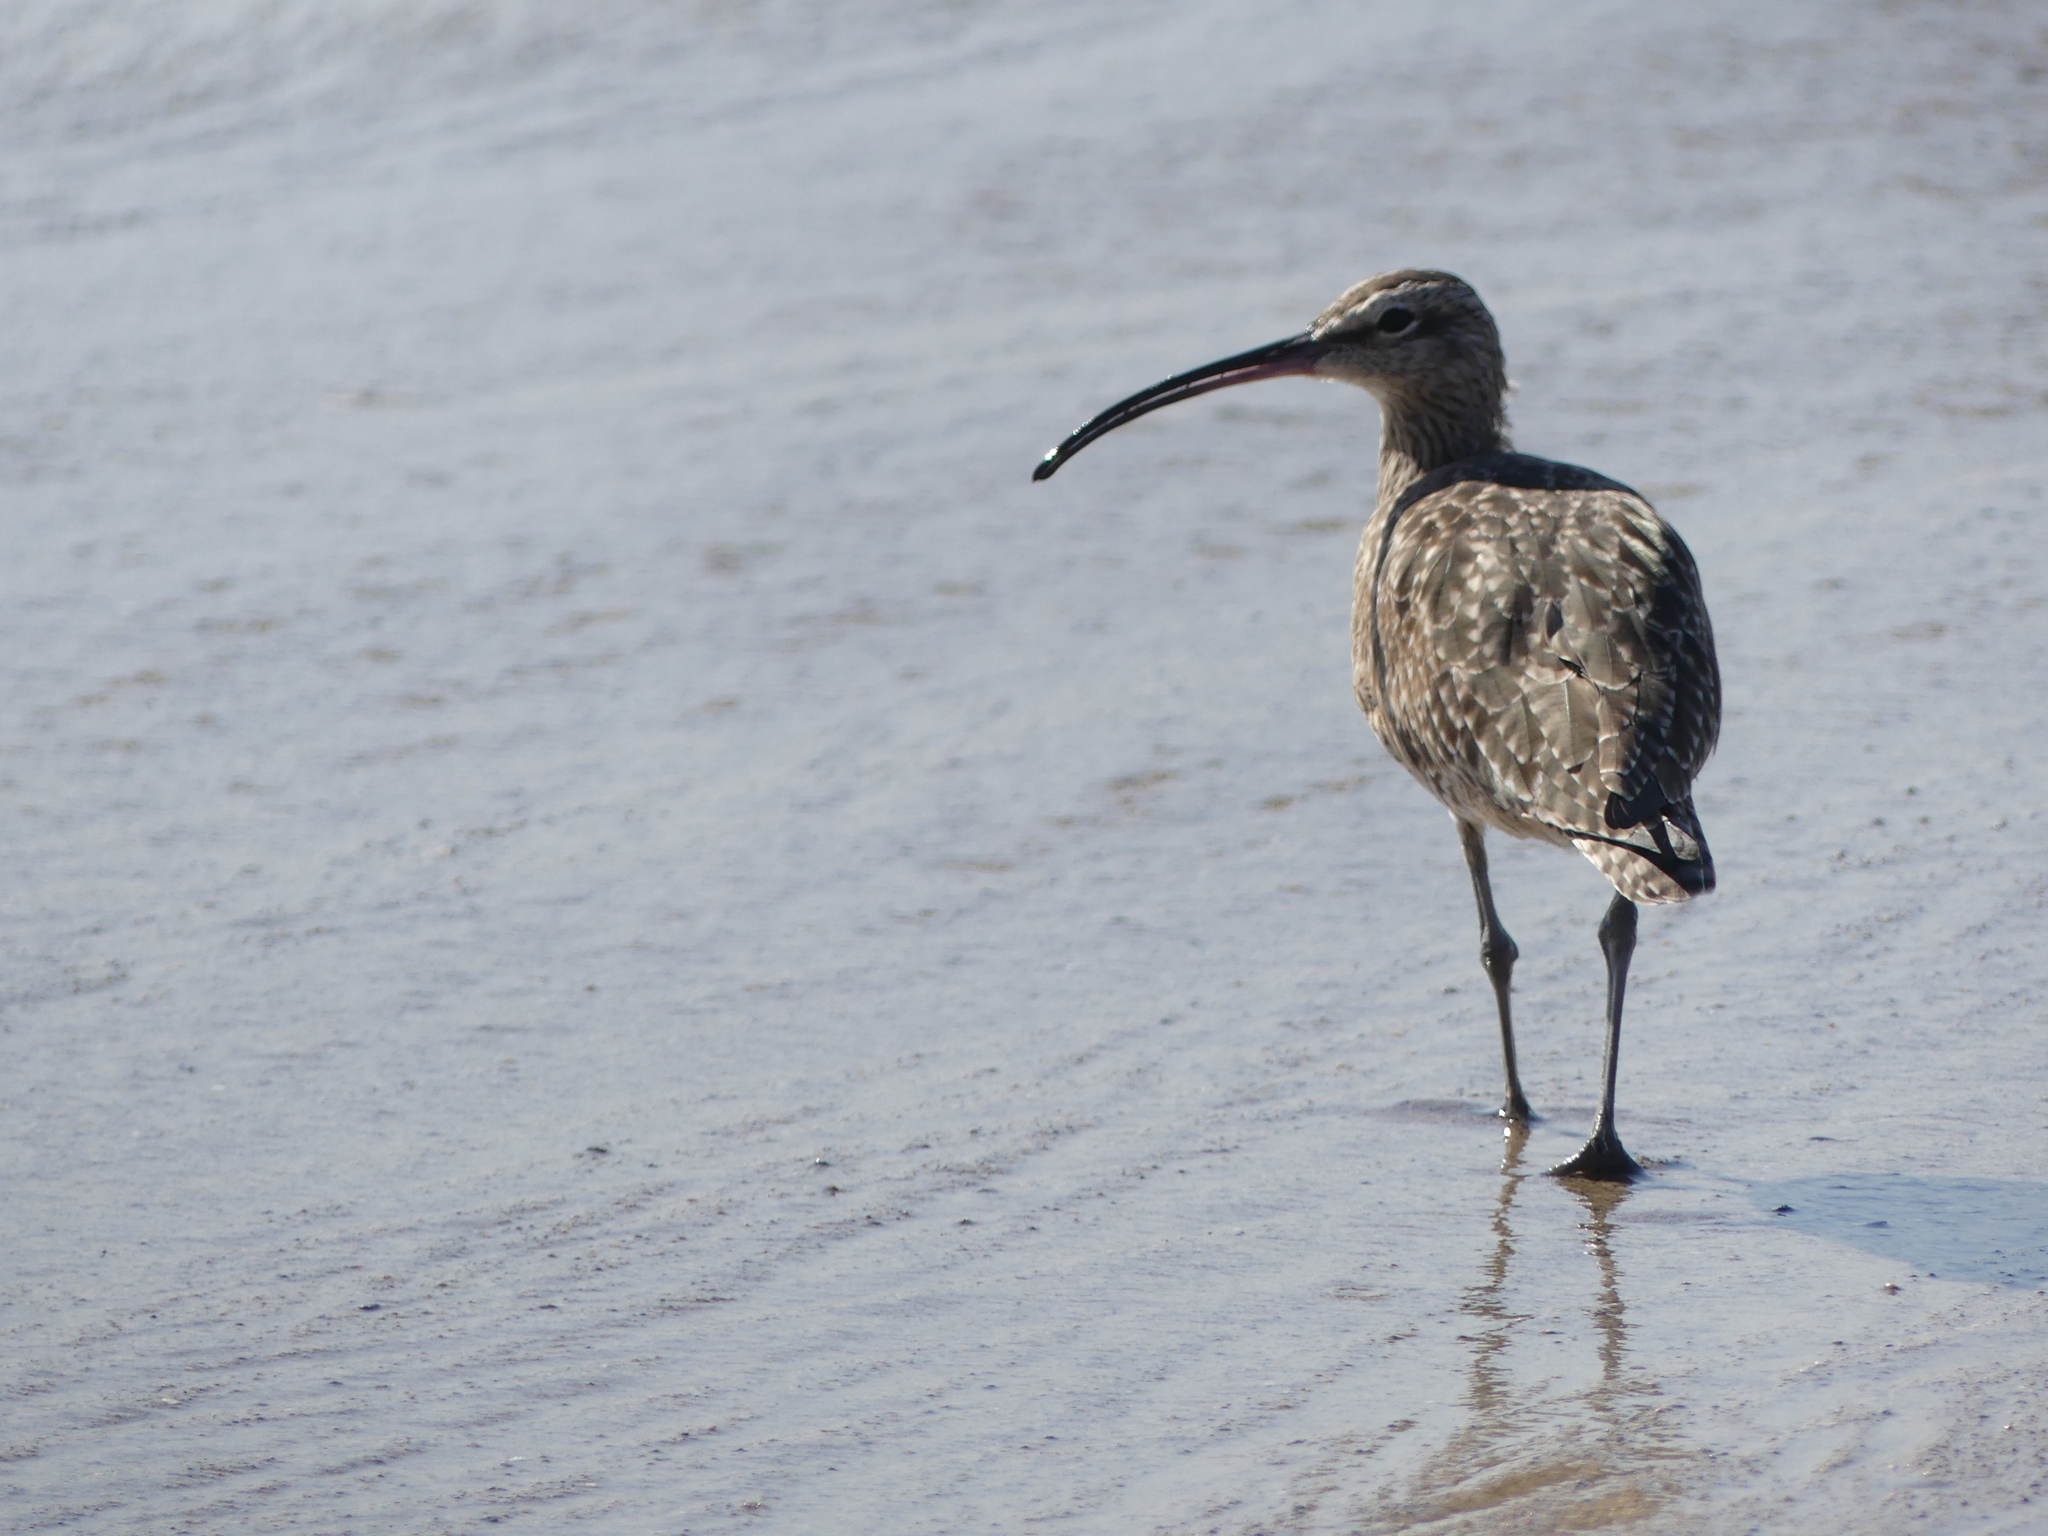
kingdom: Animalia
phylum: Chordata
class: Aves
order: Charadriiformes
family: Scolopacidae
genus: Numenius
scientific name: Numenius phaeopus
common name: Whimbrel
